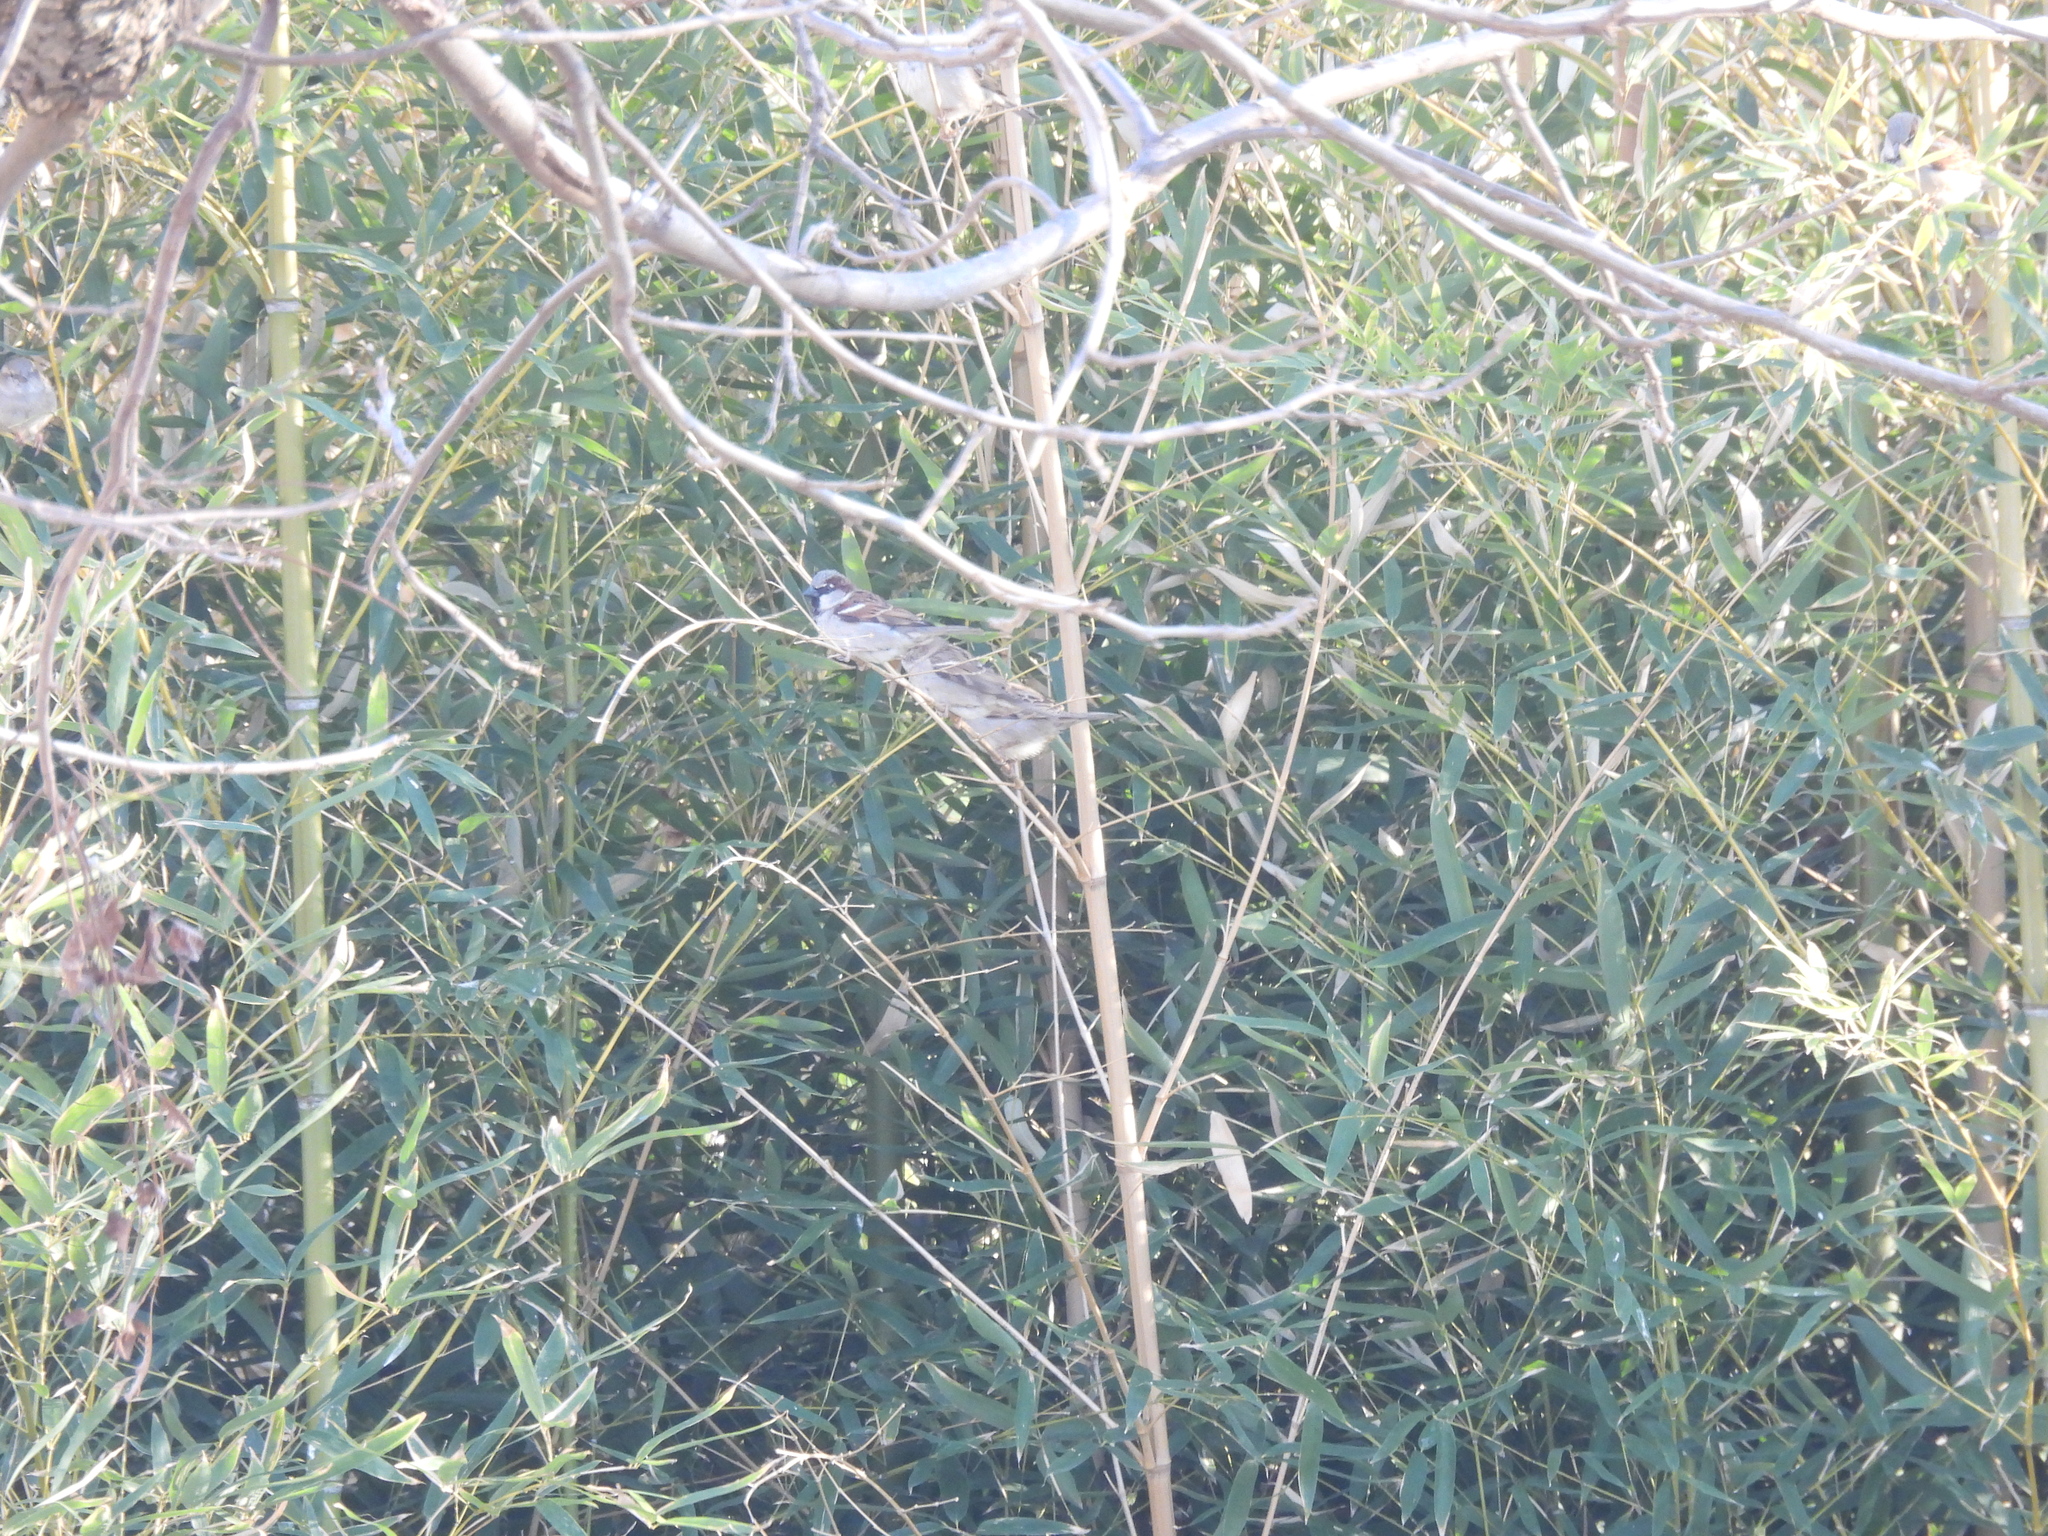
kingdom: Animalia
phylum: Chordata
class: Aves
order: Passeriformes
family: Passeridae
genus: Passer
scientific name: Passer domesticus
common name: House sparrow
